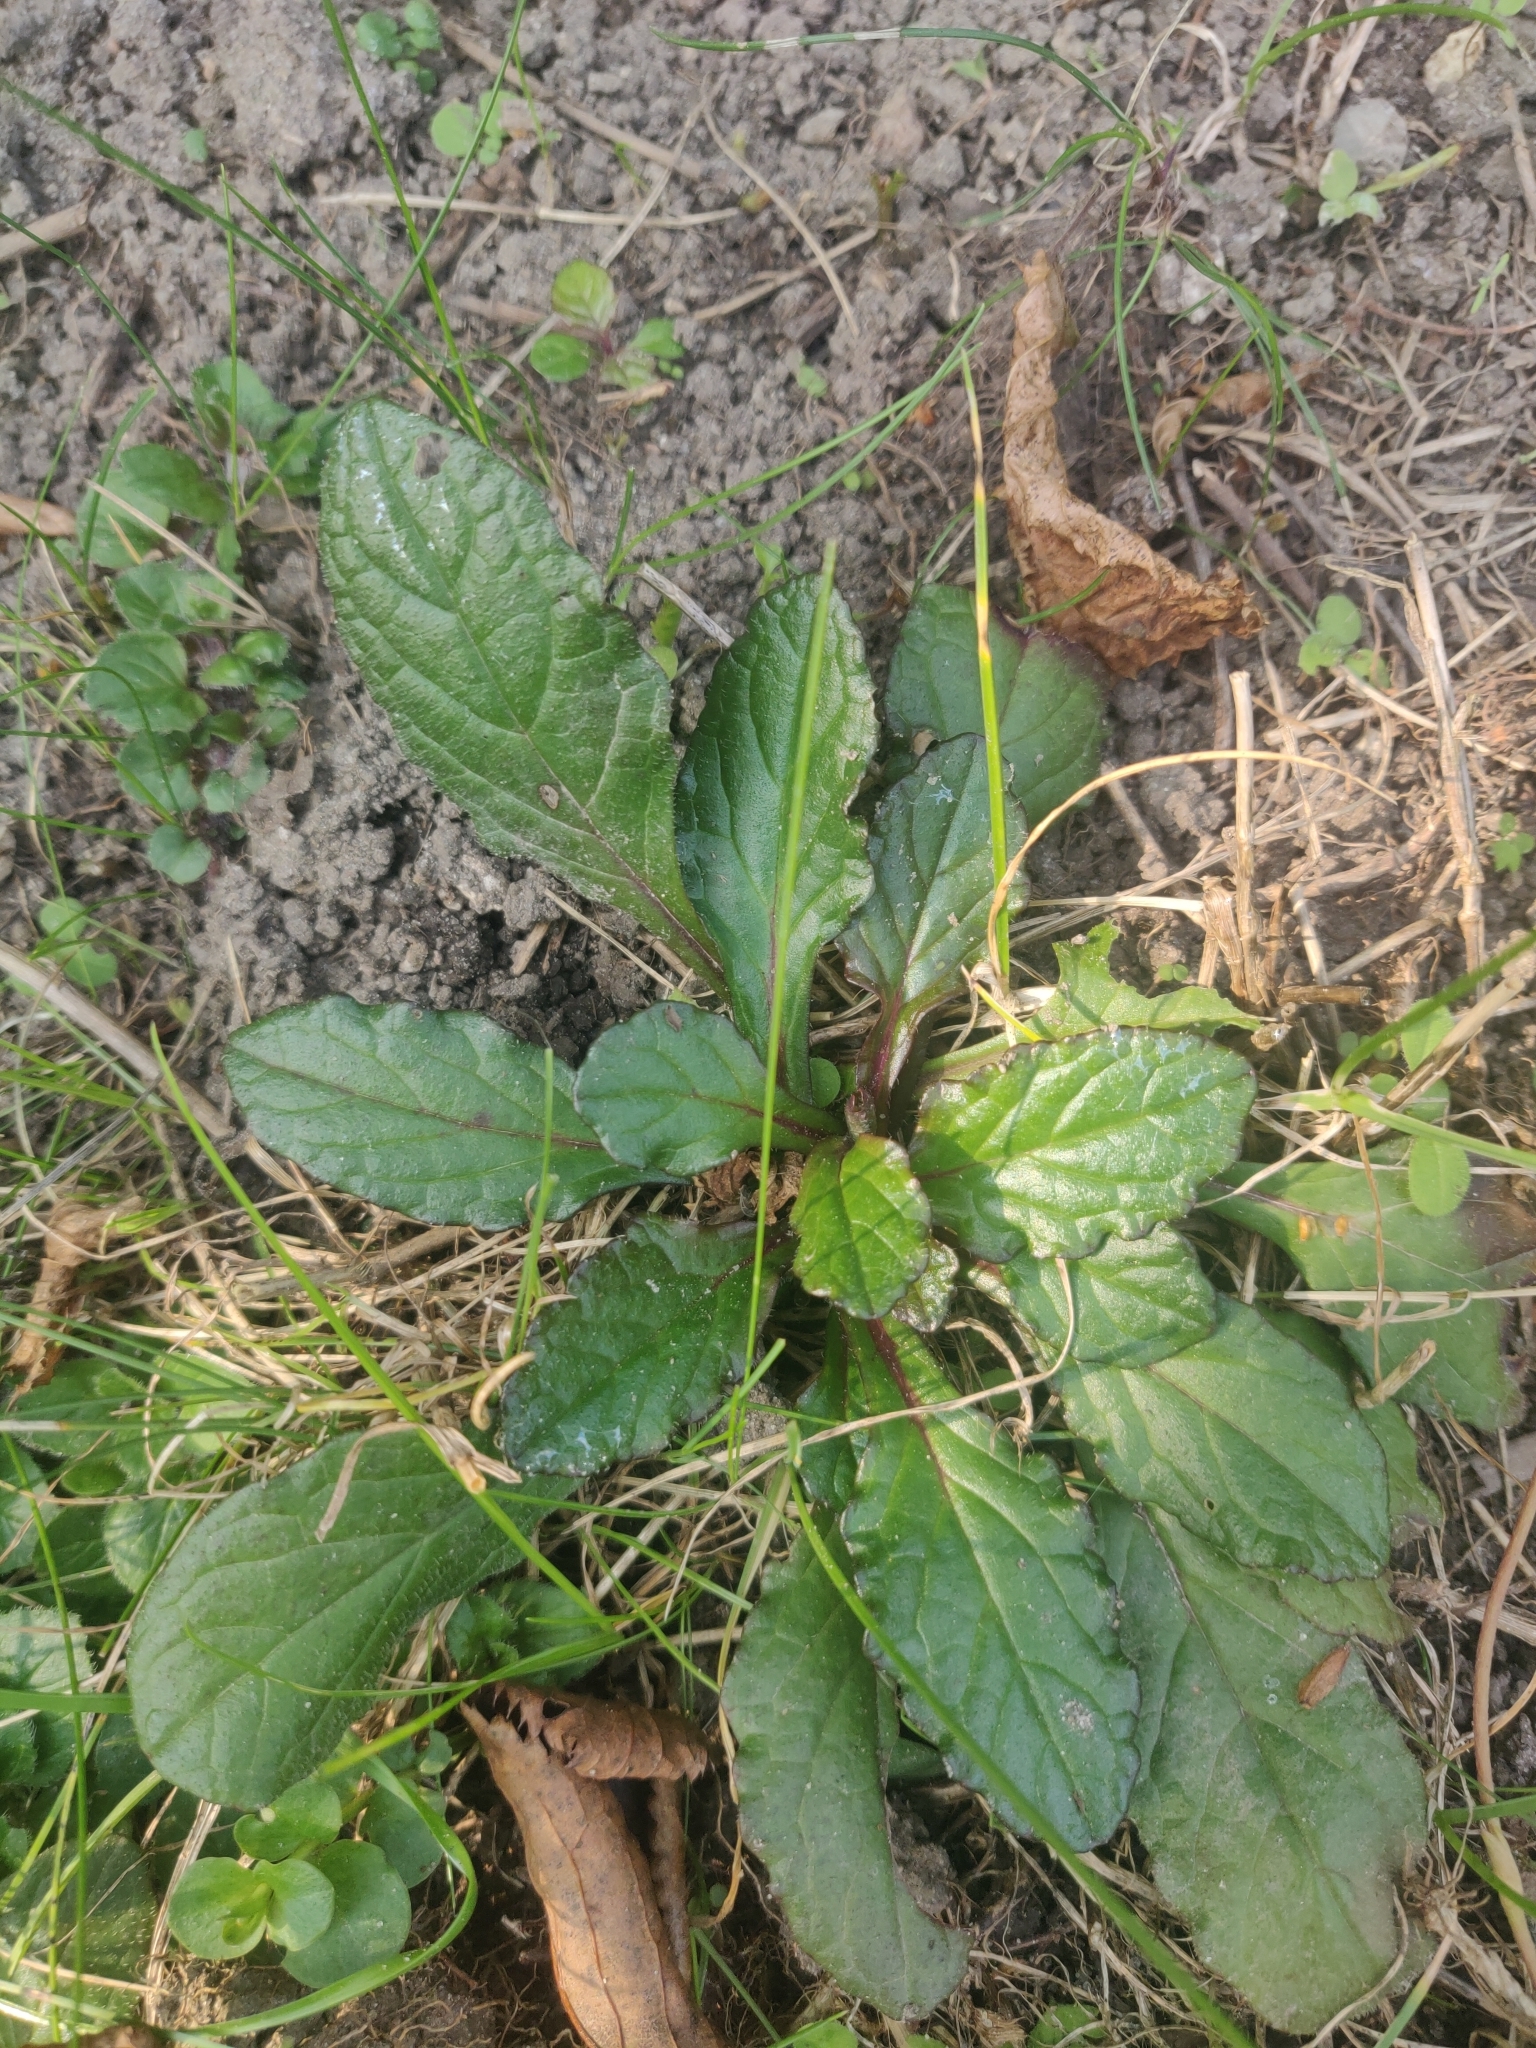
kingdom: Plantae
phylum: Tracheophyta
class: Magnoliopsida
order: Lamiales
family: Lamiaceae
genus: Ajuga
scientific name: Ajuga reptans
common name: Bugle
